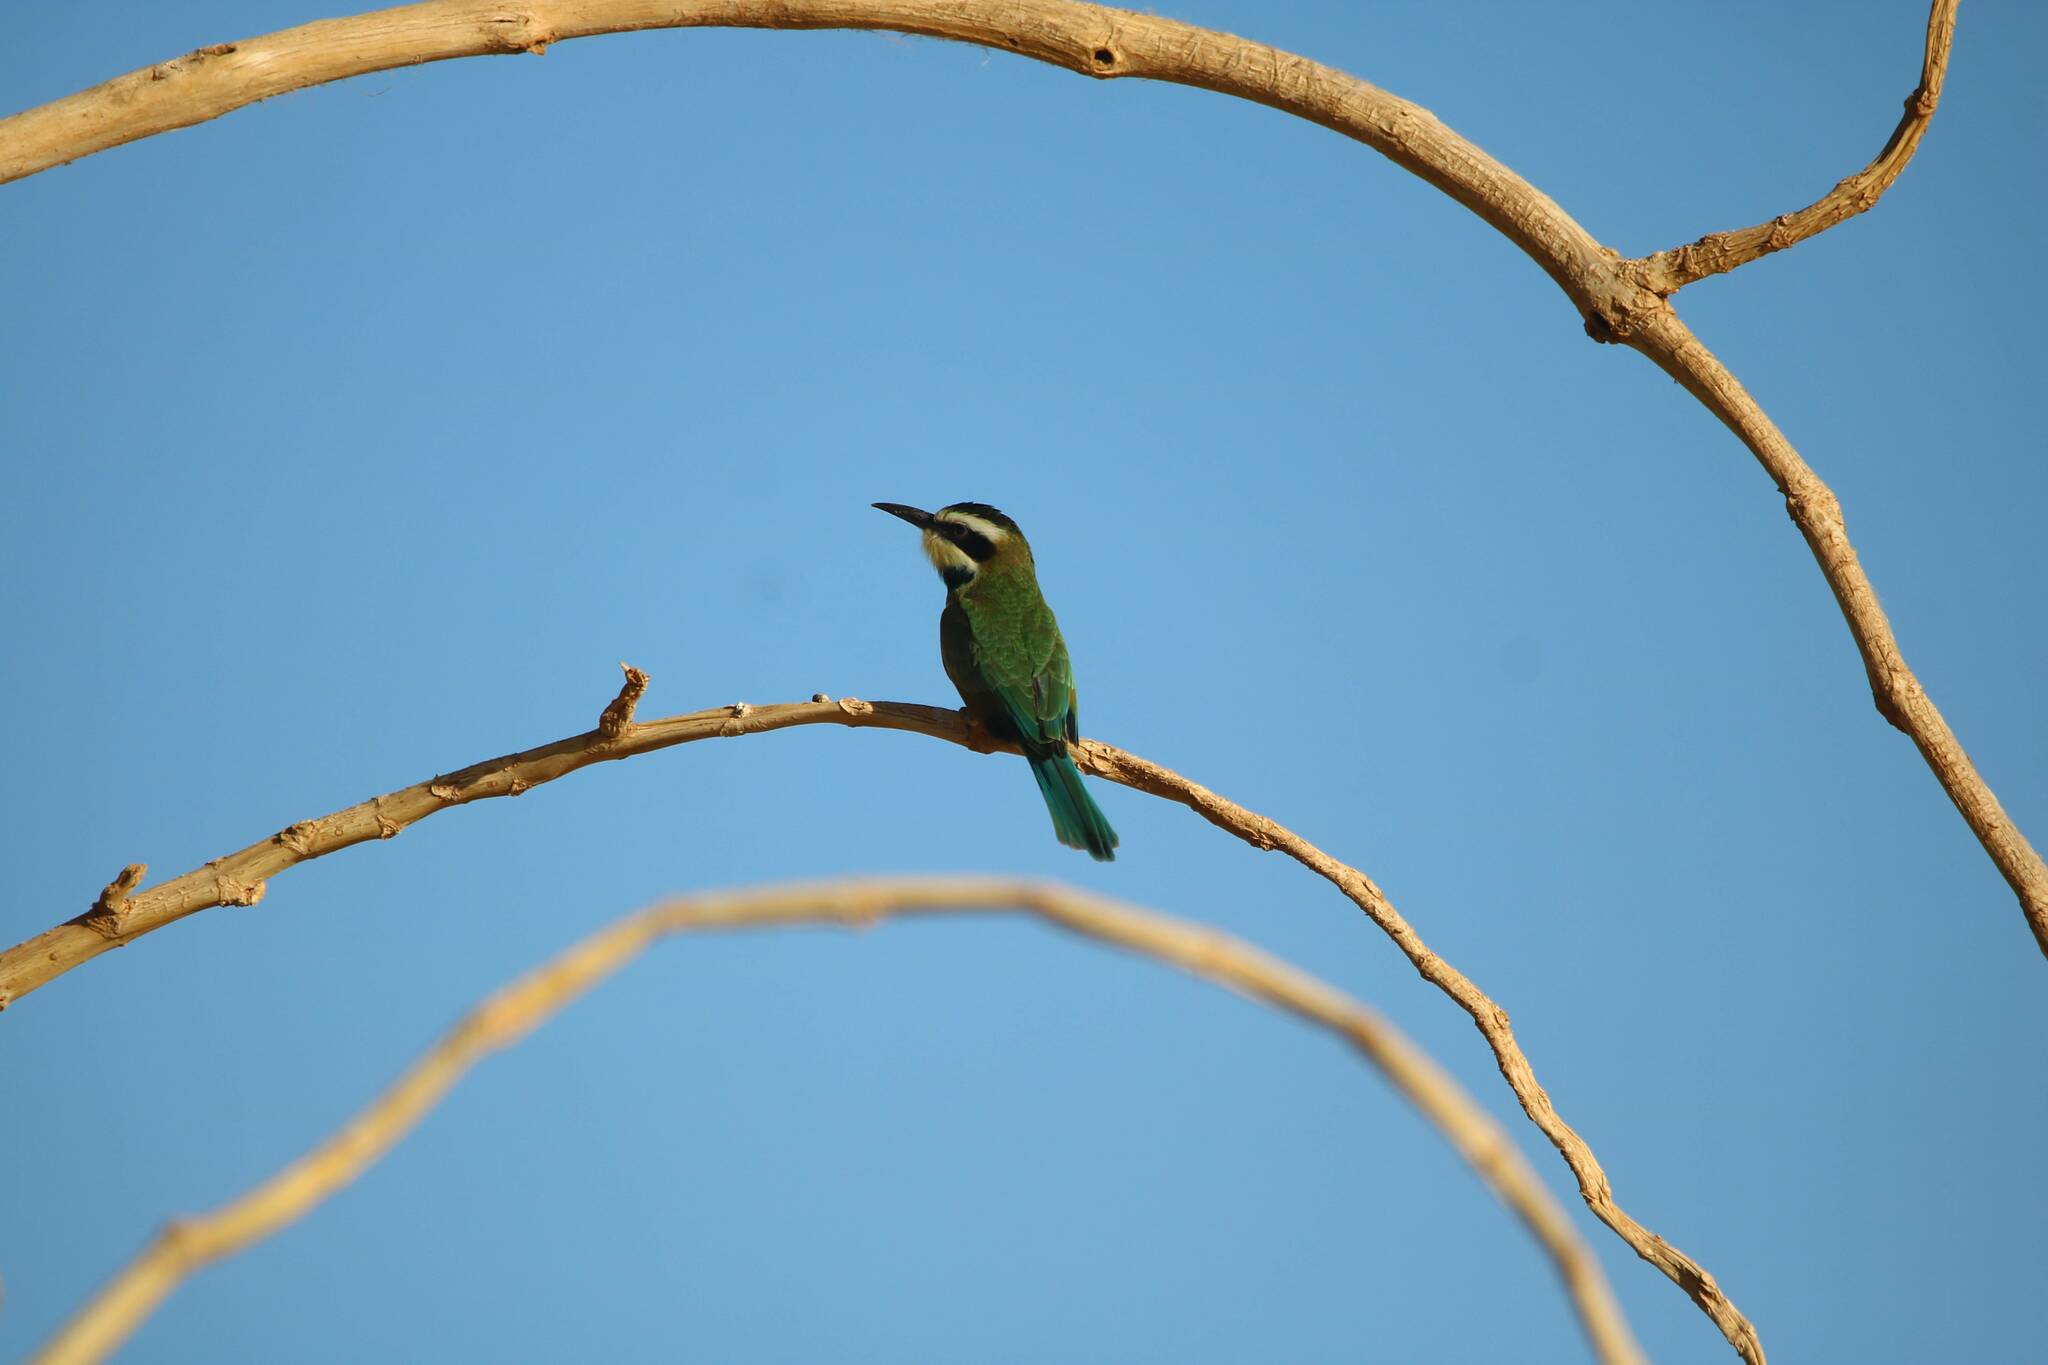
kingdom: Animalia
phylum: Chordata
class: Aves
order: Coraciiformes
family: Meropidae
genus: Merops
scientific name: Merops albicollis
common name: White-throated bee-eater
